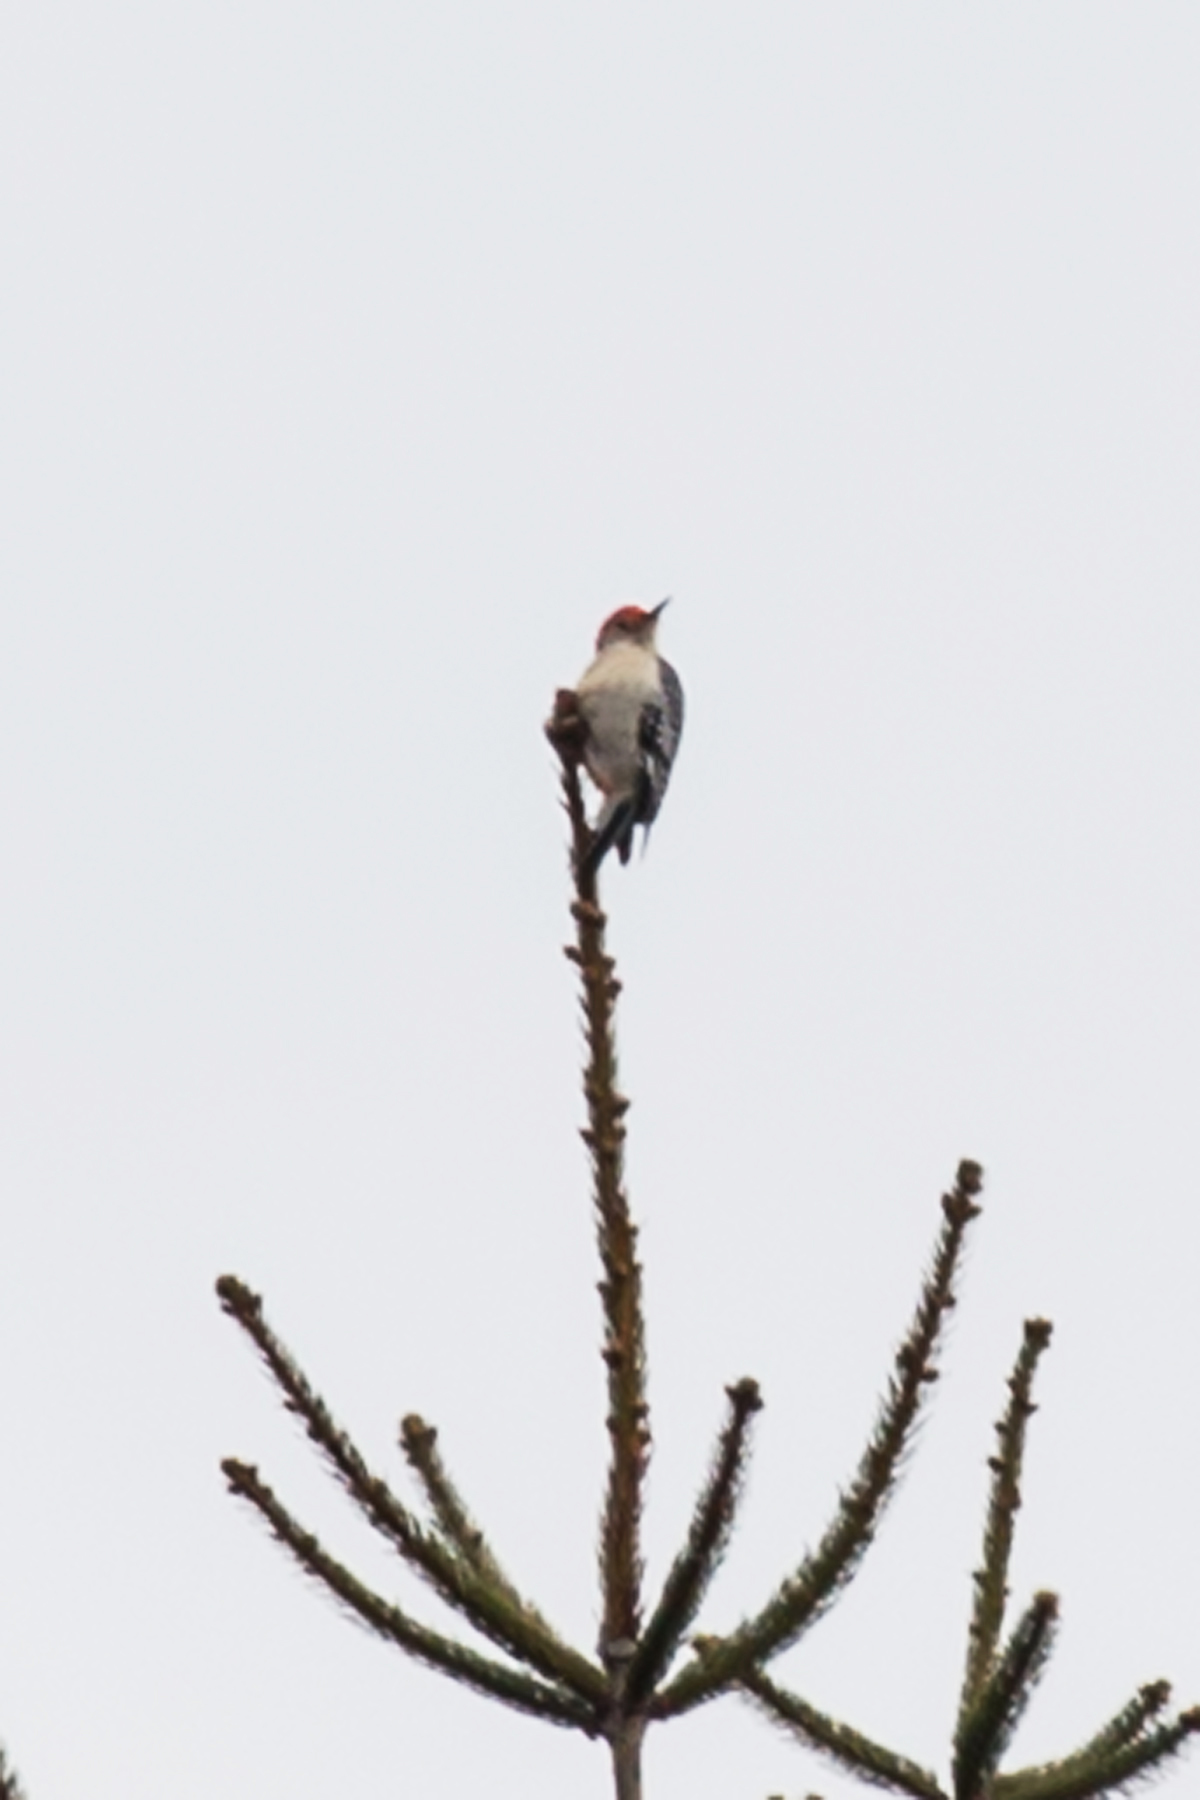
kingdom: Animalia
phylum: Chordata
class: Aves
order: Piciformes
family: Picidae
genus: Melanerpes
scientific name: Melanerpes carolinus
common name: Red-bellied woodpecker
